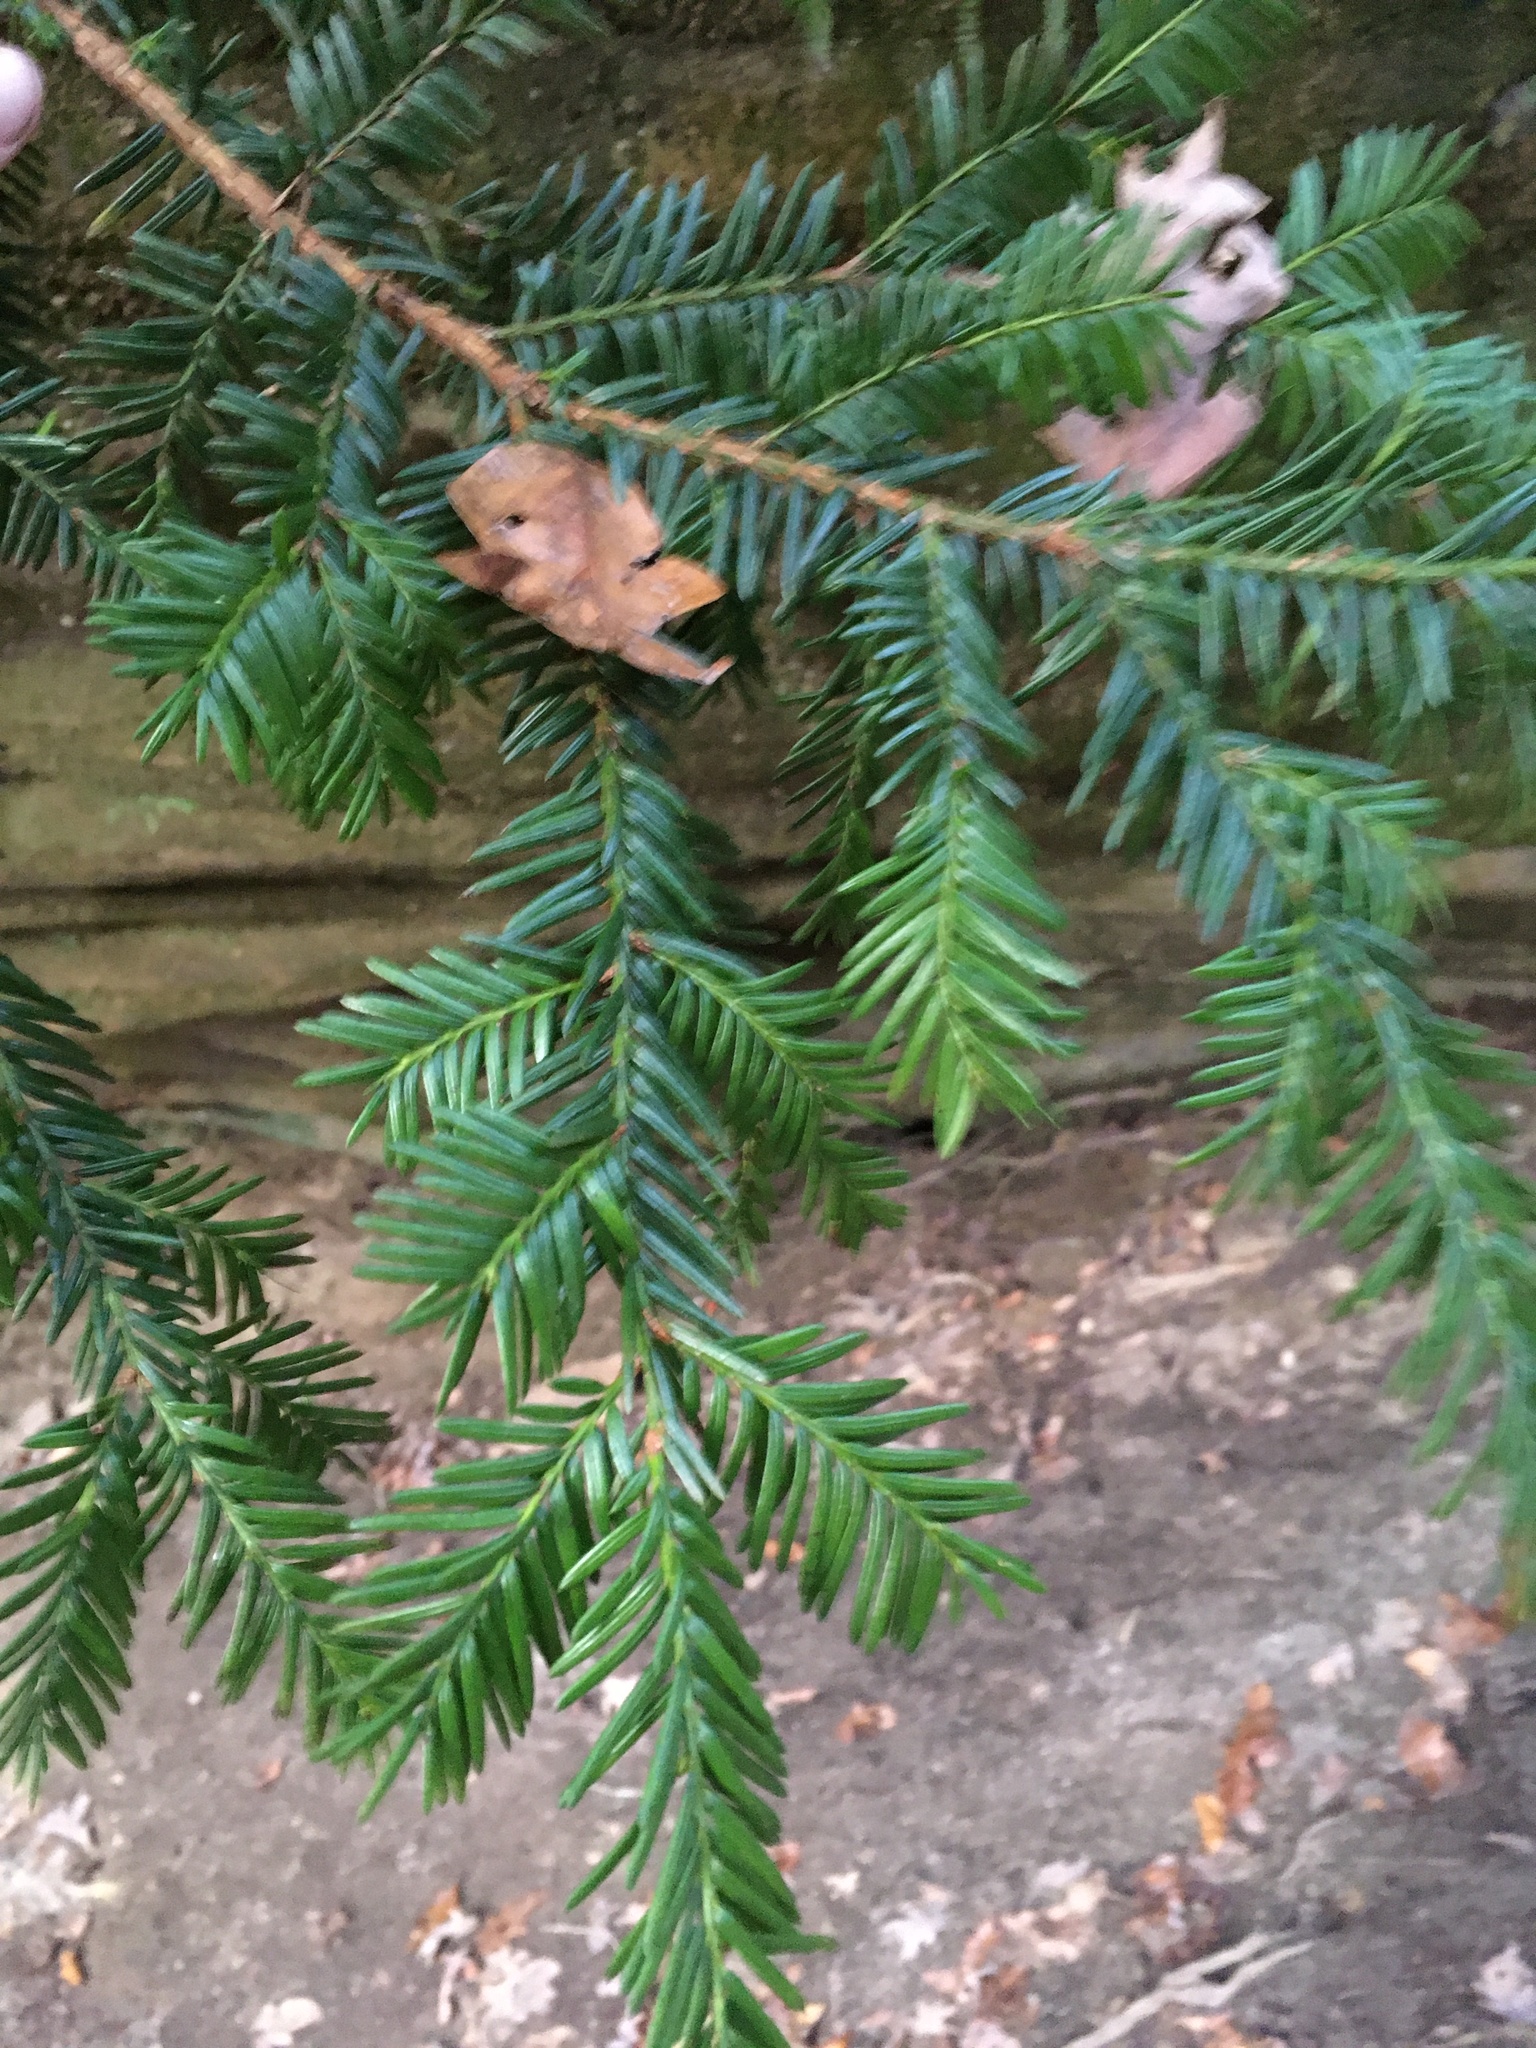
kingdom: Plantae
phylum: Tracheophyta
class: Pinopsida
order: Pinales
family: Taxaceae
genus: Taxus
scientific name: Taxus canadensis
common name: American yew
